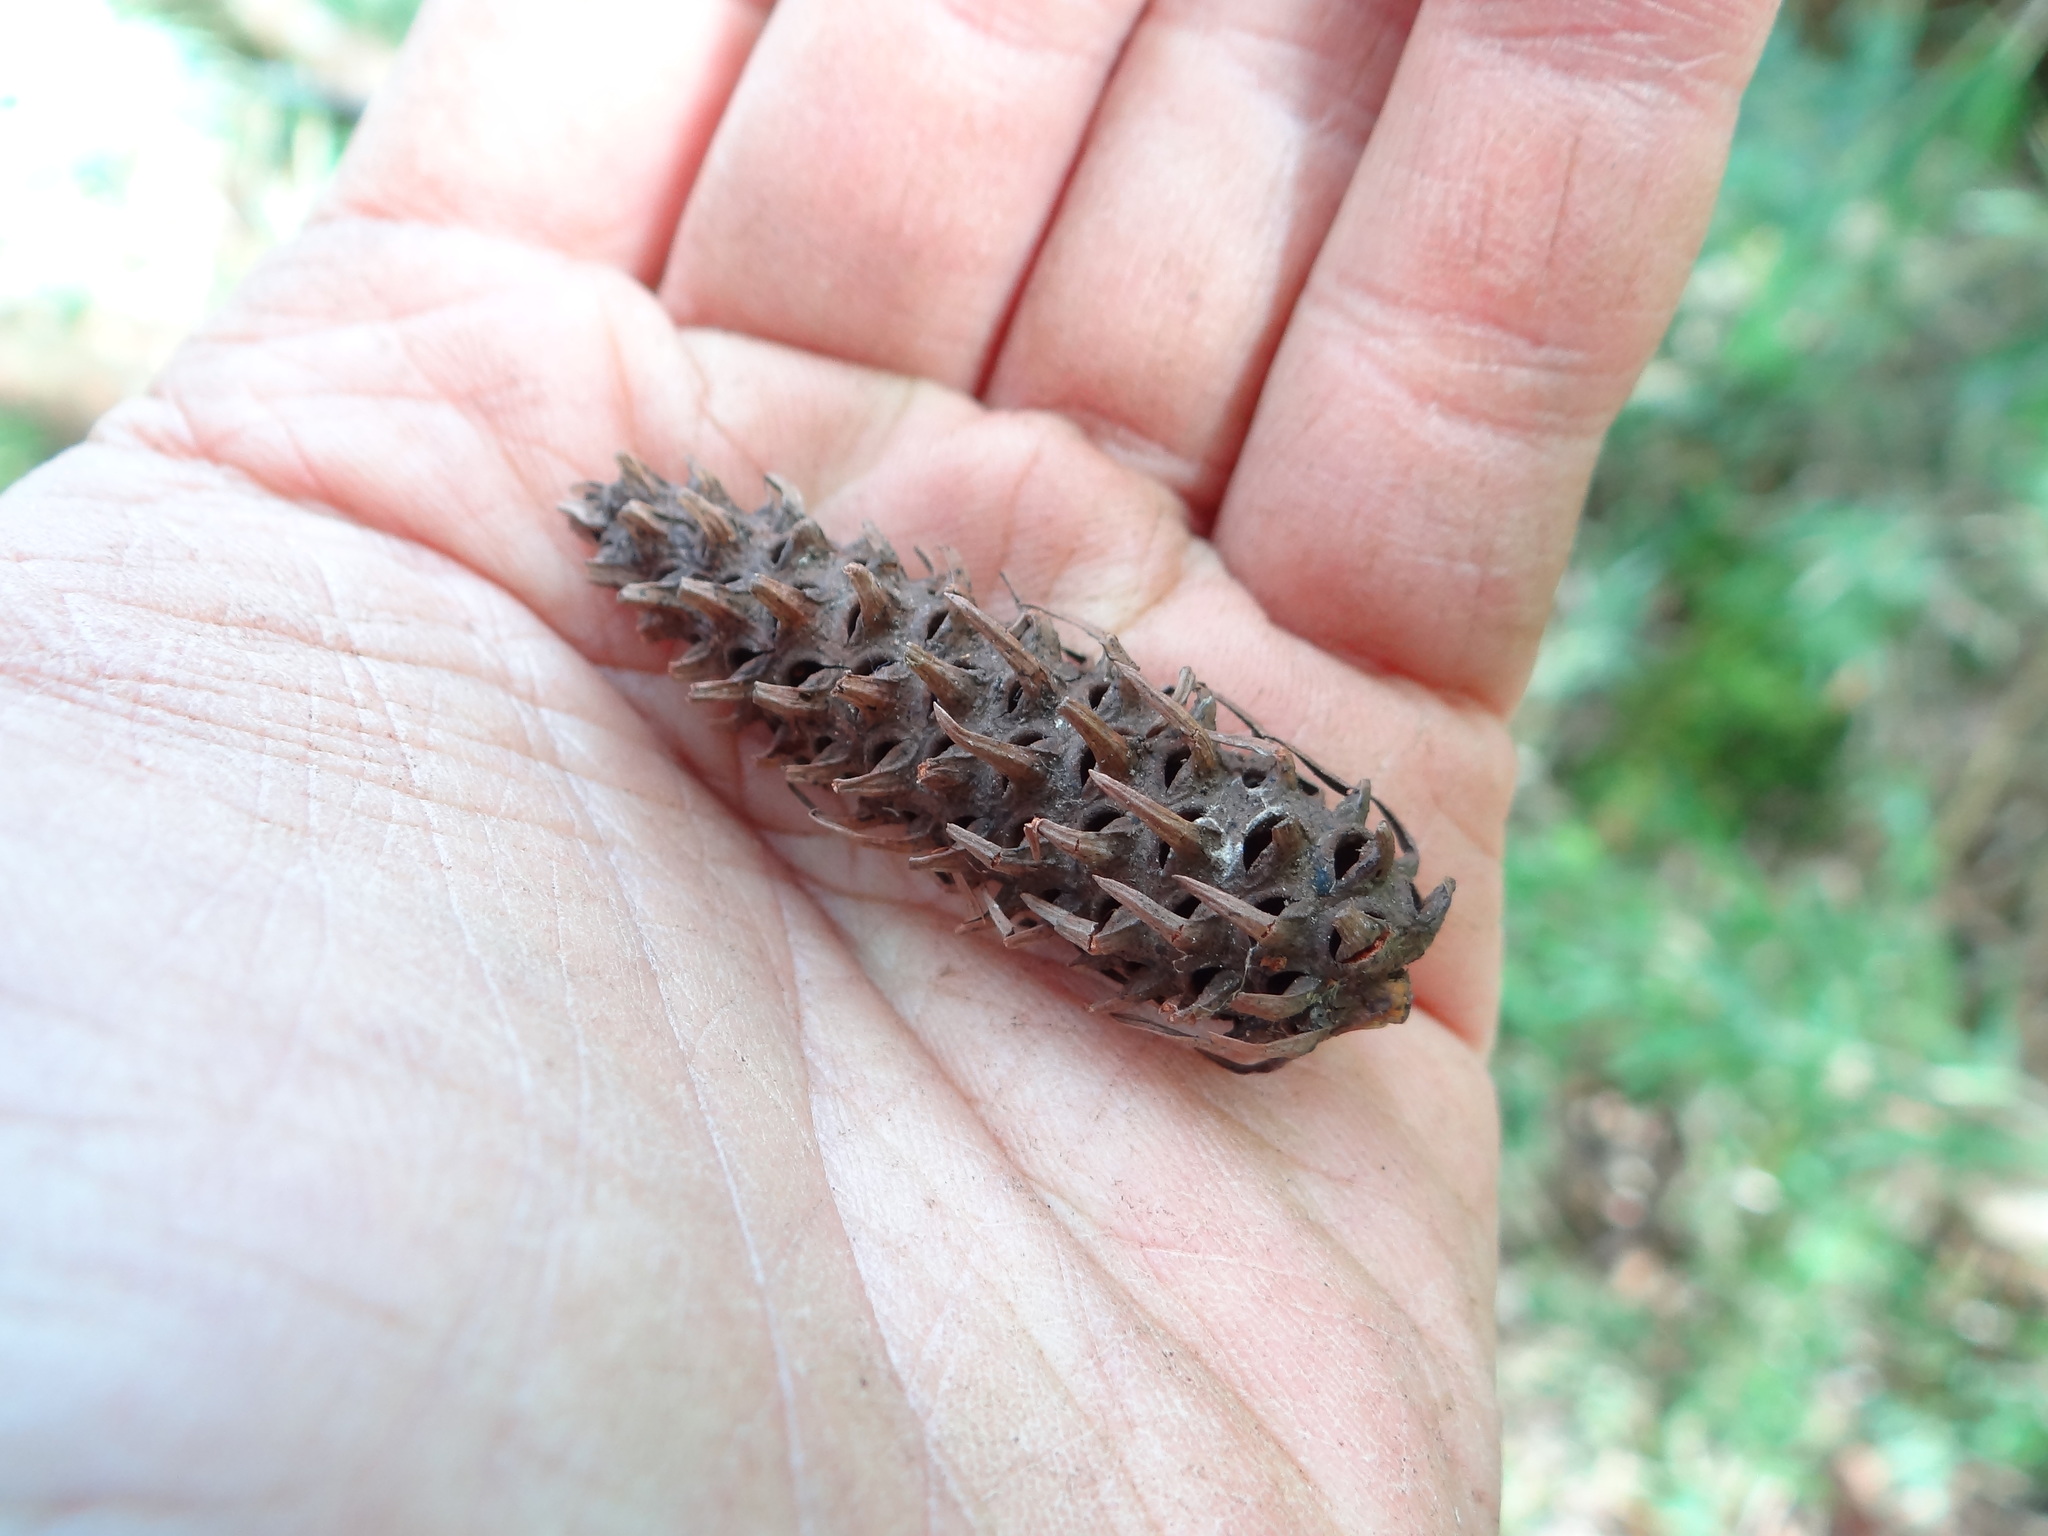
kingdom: Plantae
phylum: Tracheophyta
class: Pinopsida
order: Pinales
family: Pinaceae
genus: Picea
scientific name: Picea morrisonicola
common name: Mount morrison spruce
